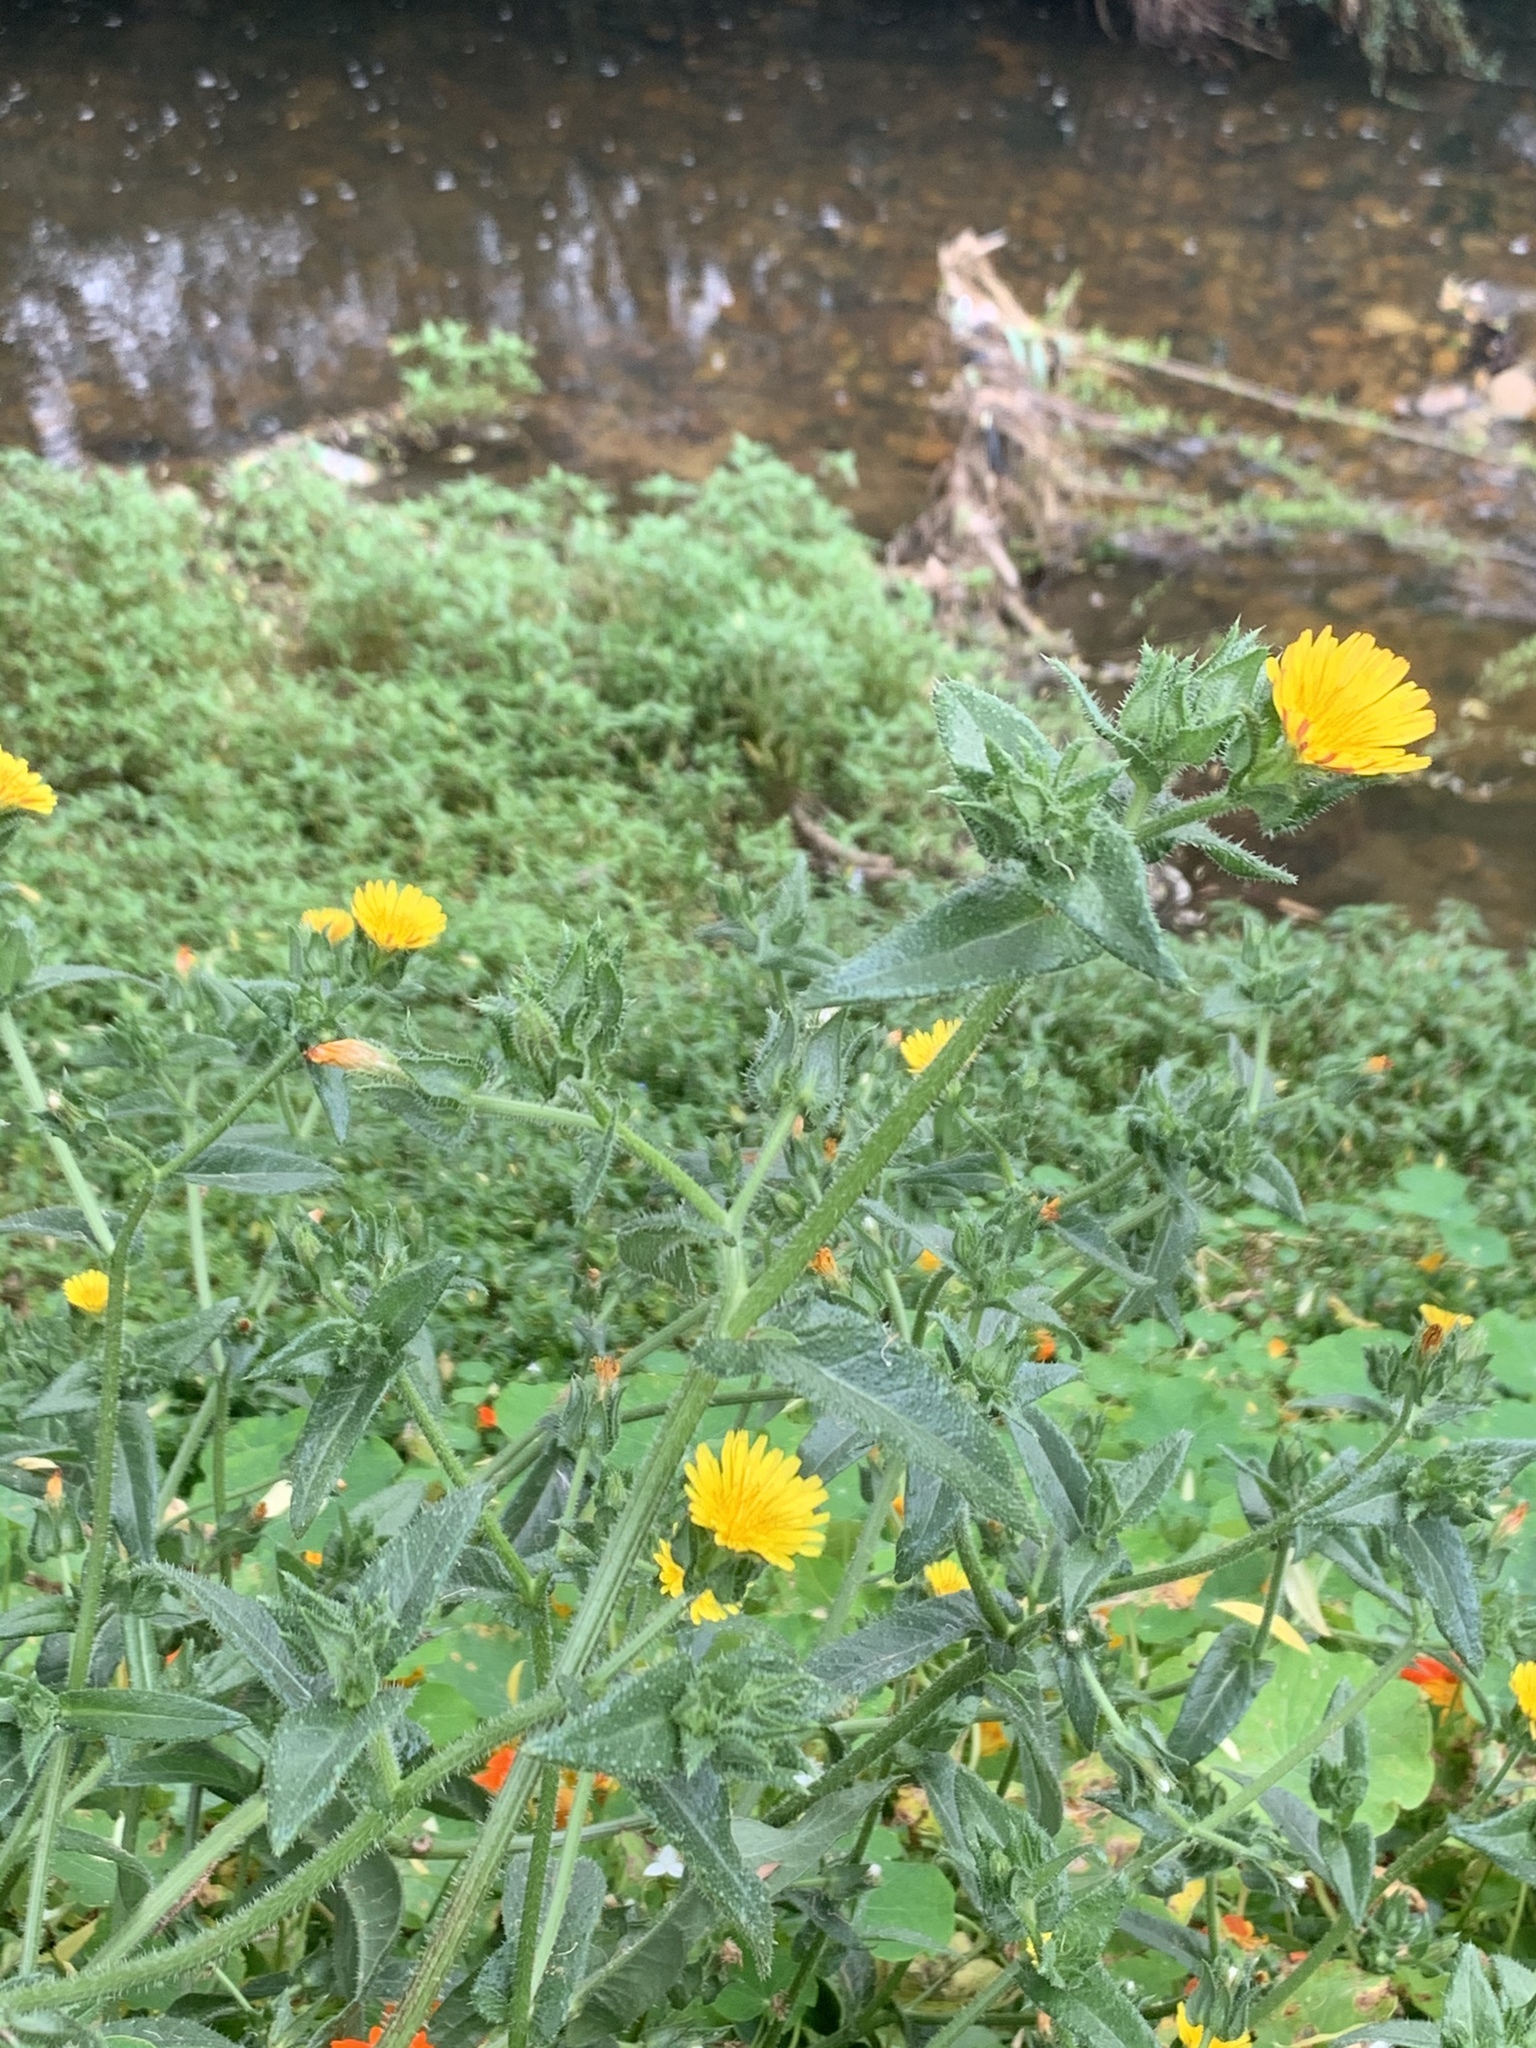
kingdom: Plantae
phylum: Tracheophyta
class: Magnoliopsida
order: Asterales
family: Asteraceae
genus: Helminthotheca
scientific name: Helminthotheca echioides
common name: Ox-tongue
